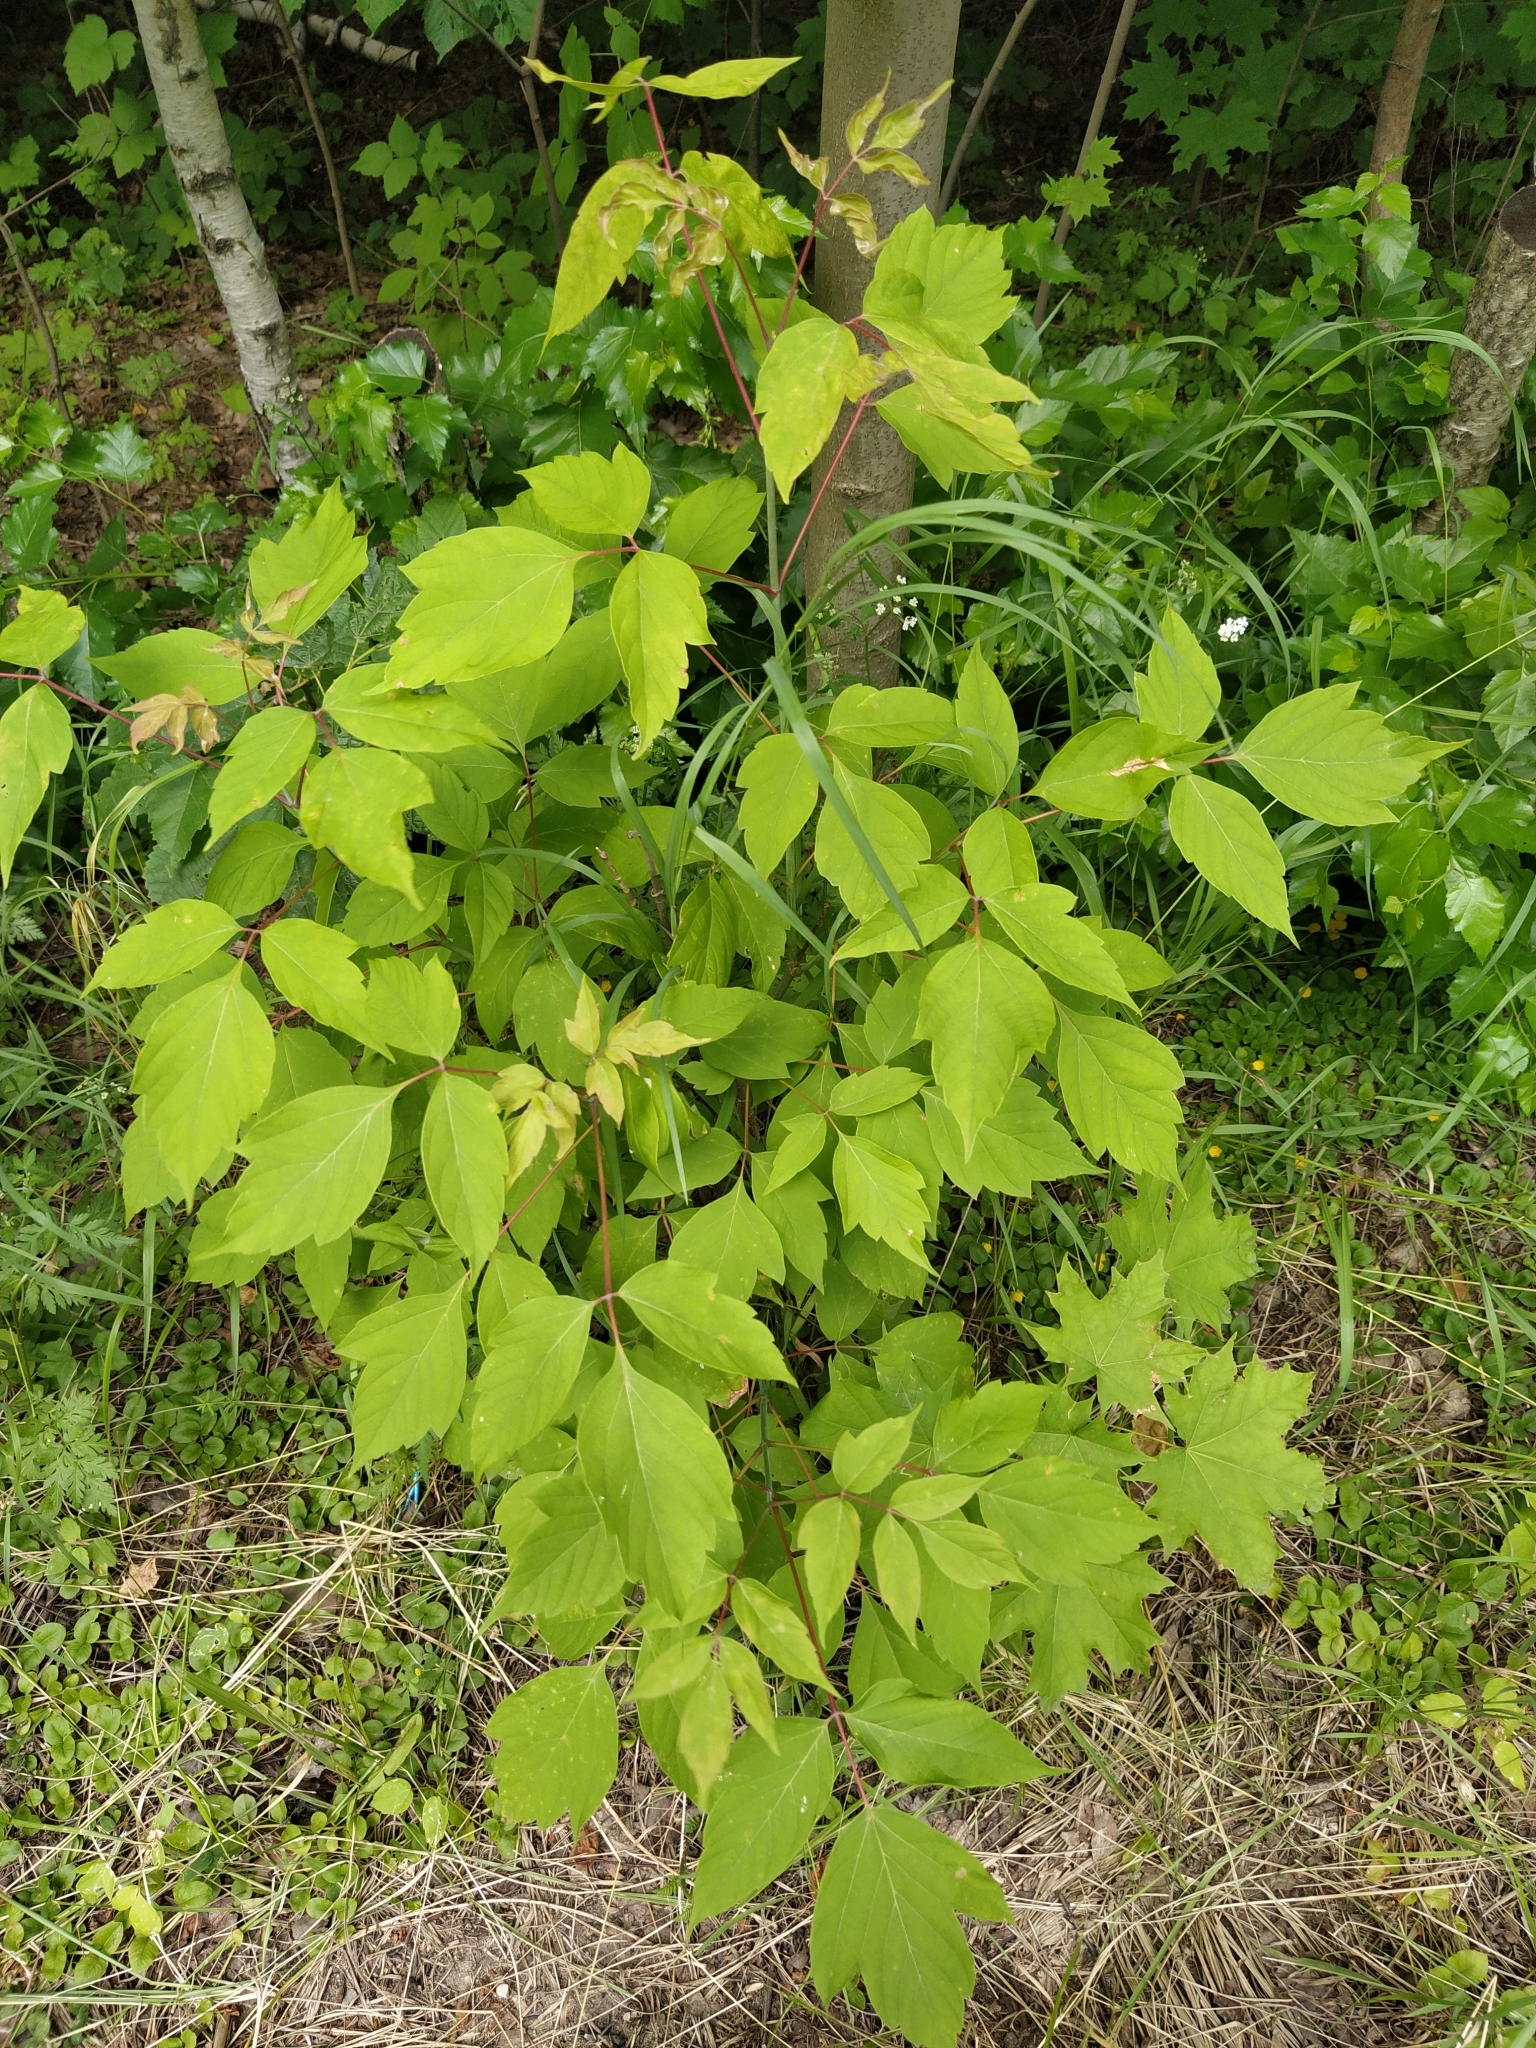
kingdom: Plantae
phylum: Tracheophyta
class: Magnoliopsida
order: Sapindales
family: Sapindaceae
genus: Acer
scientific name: Acer negundo
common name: Ashleaf maple
